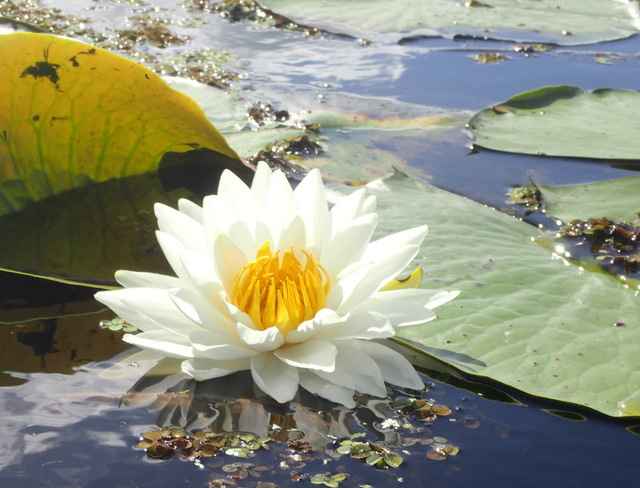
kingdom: Plantae
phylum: Tracheophyta
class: Magnoliopsida
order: Nymphaeales
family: Nymphaeaceae
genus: Nymphaea
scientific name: Nymphaea odorata
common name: Fragrant water-lily
